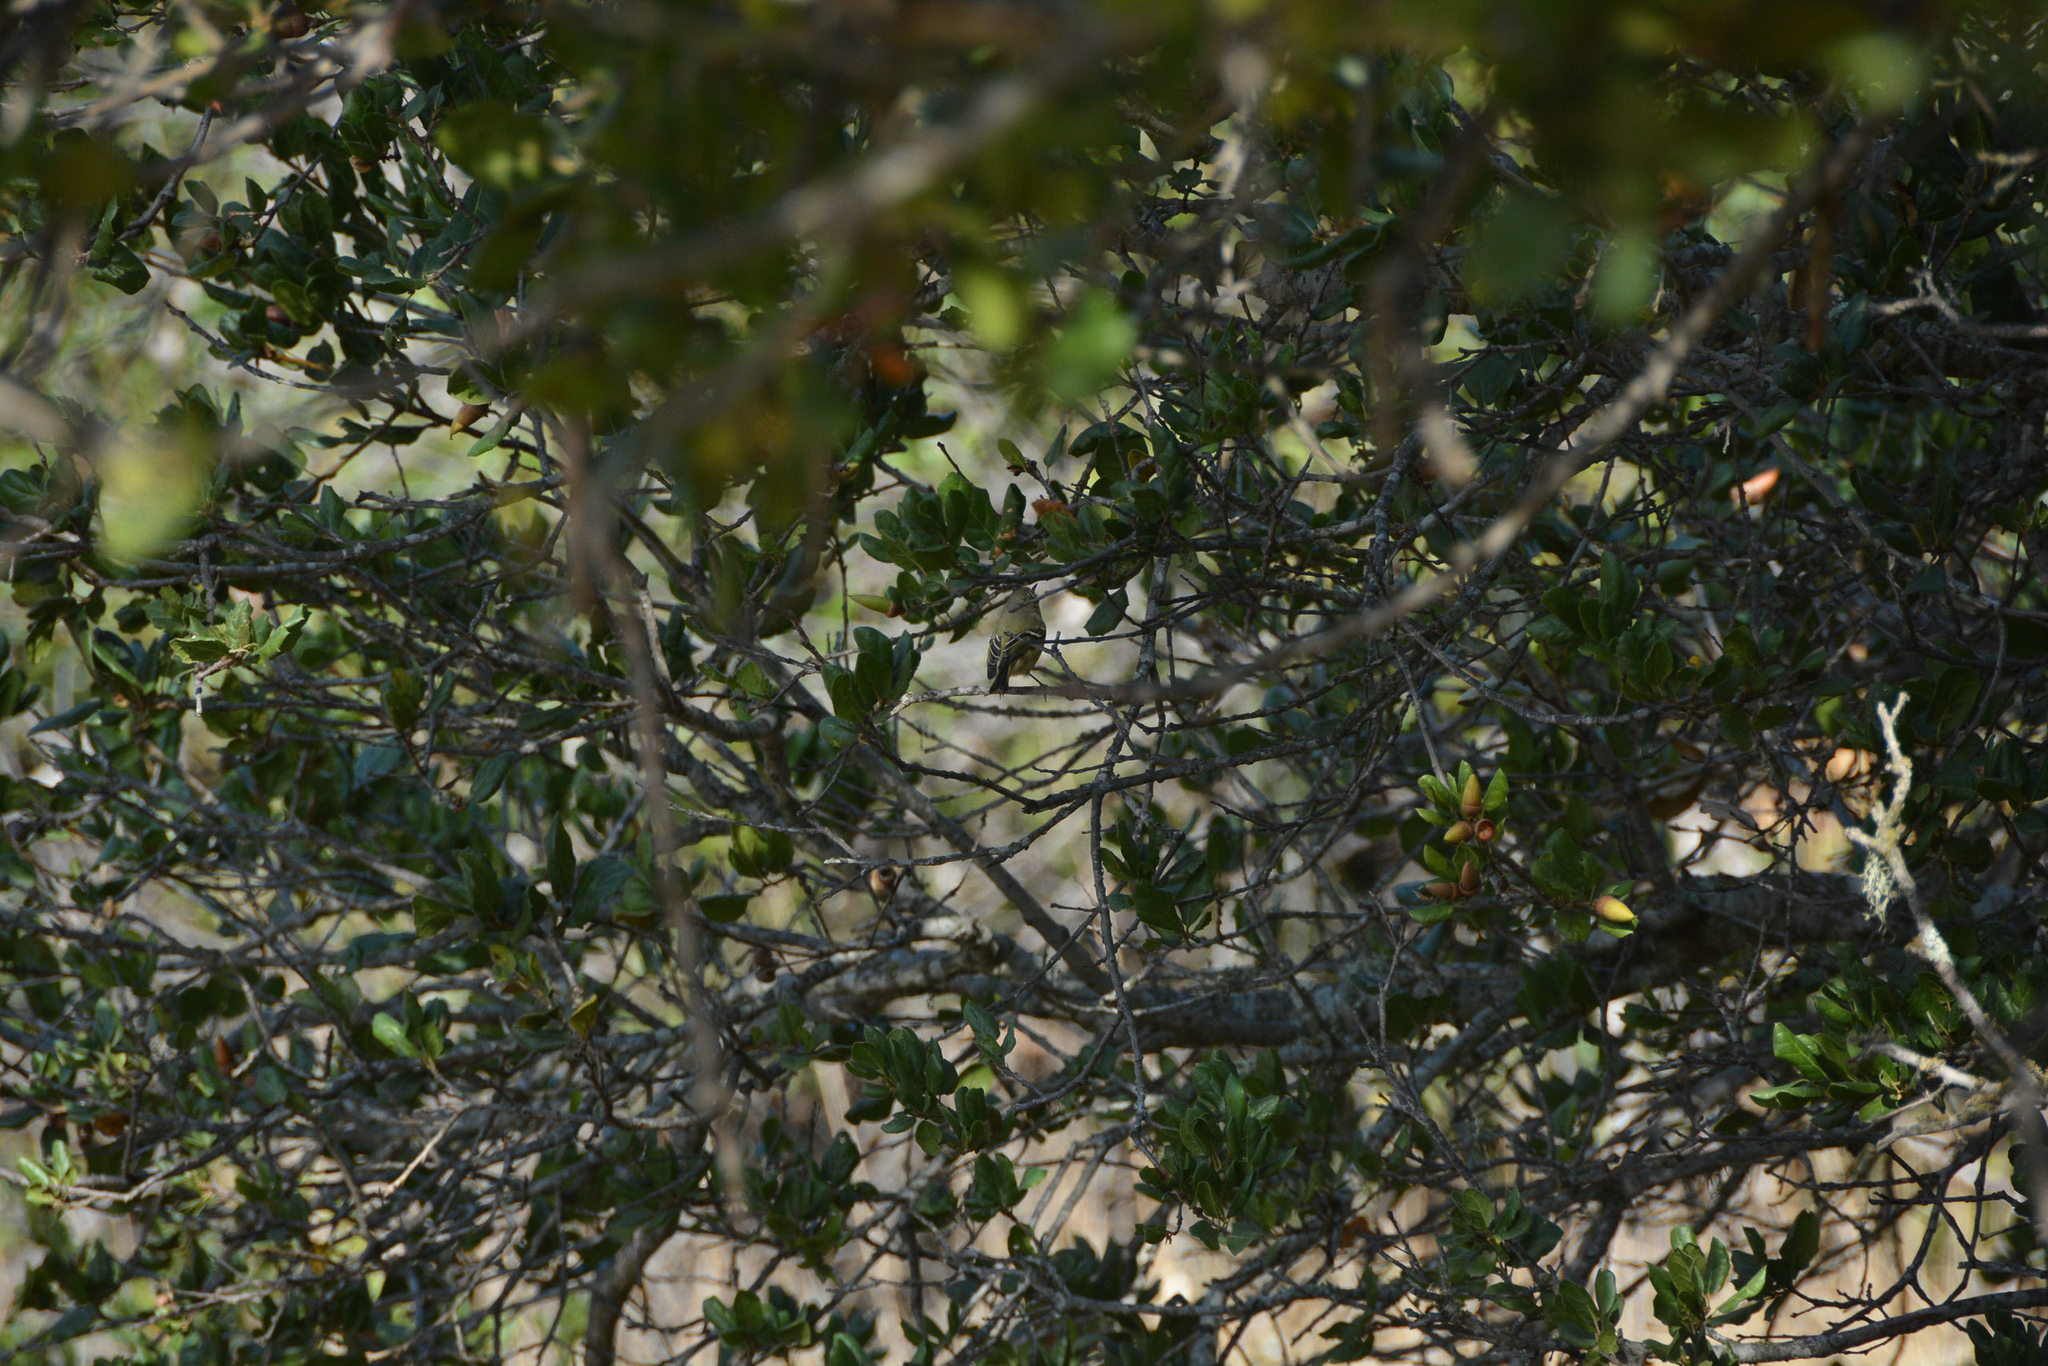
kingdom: Animalia
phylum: Chordata
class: Aves
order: Passeriformes
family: Regulidae
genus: Regulus
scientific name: Regulus calendula
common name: Ruby-crowned kinglet
